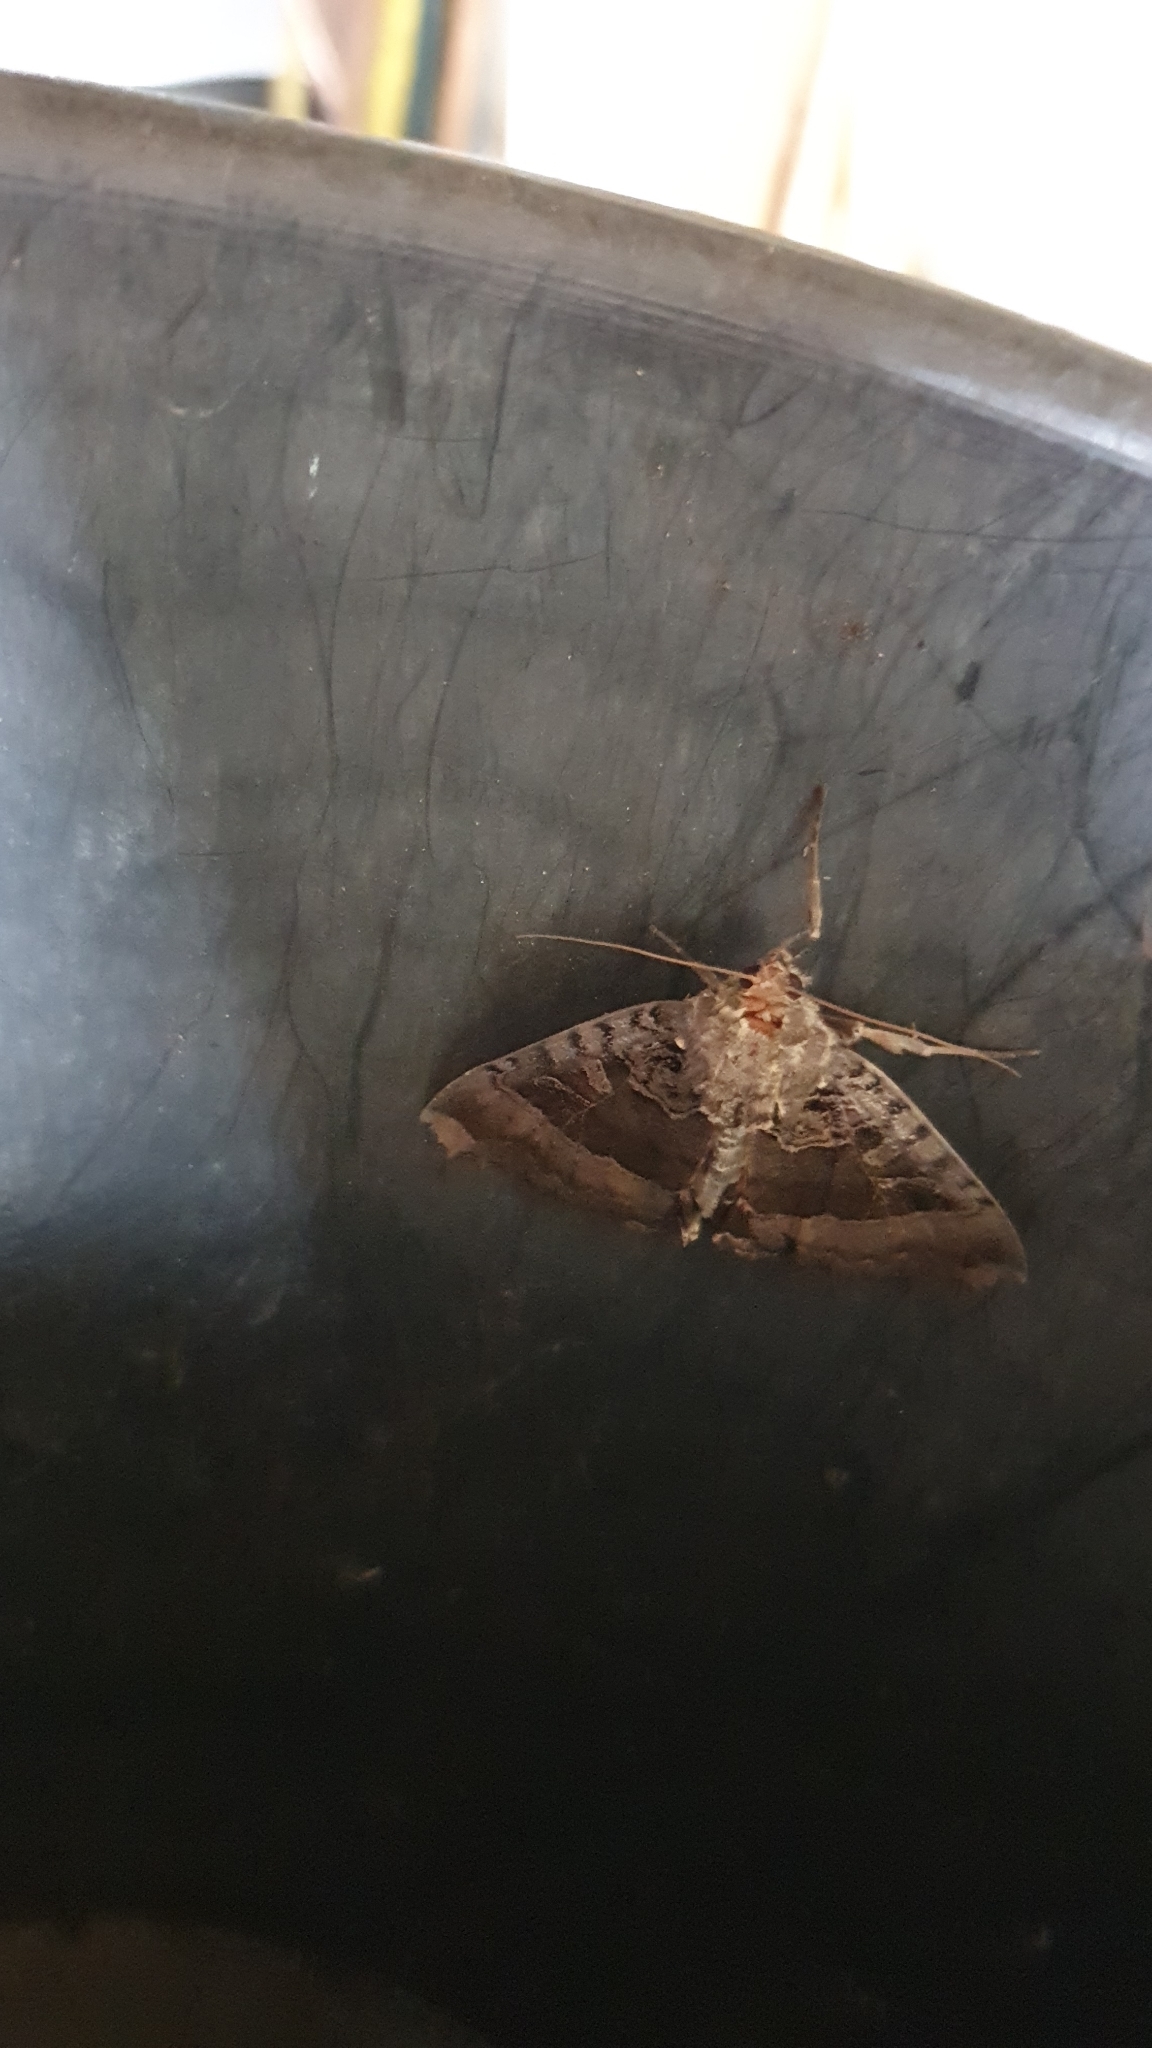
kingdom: Animalia
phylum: Arthropoda
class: Insecta
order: Lepidoptera
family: Noctuidae
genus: Mormo
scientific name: Mormo maura
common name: Old lady
